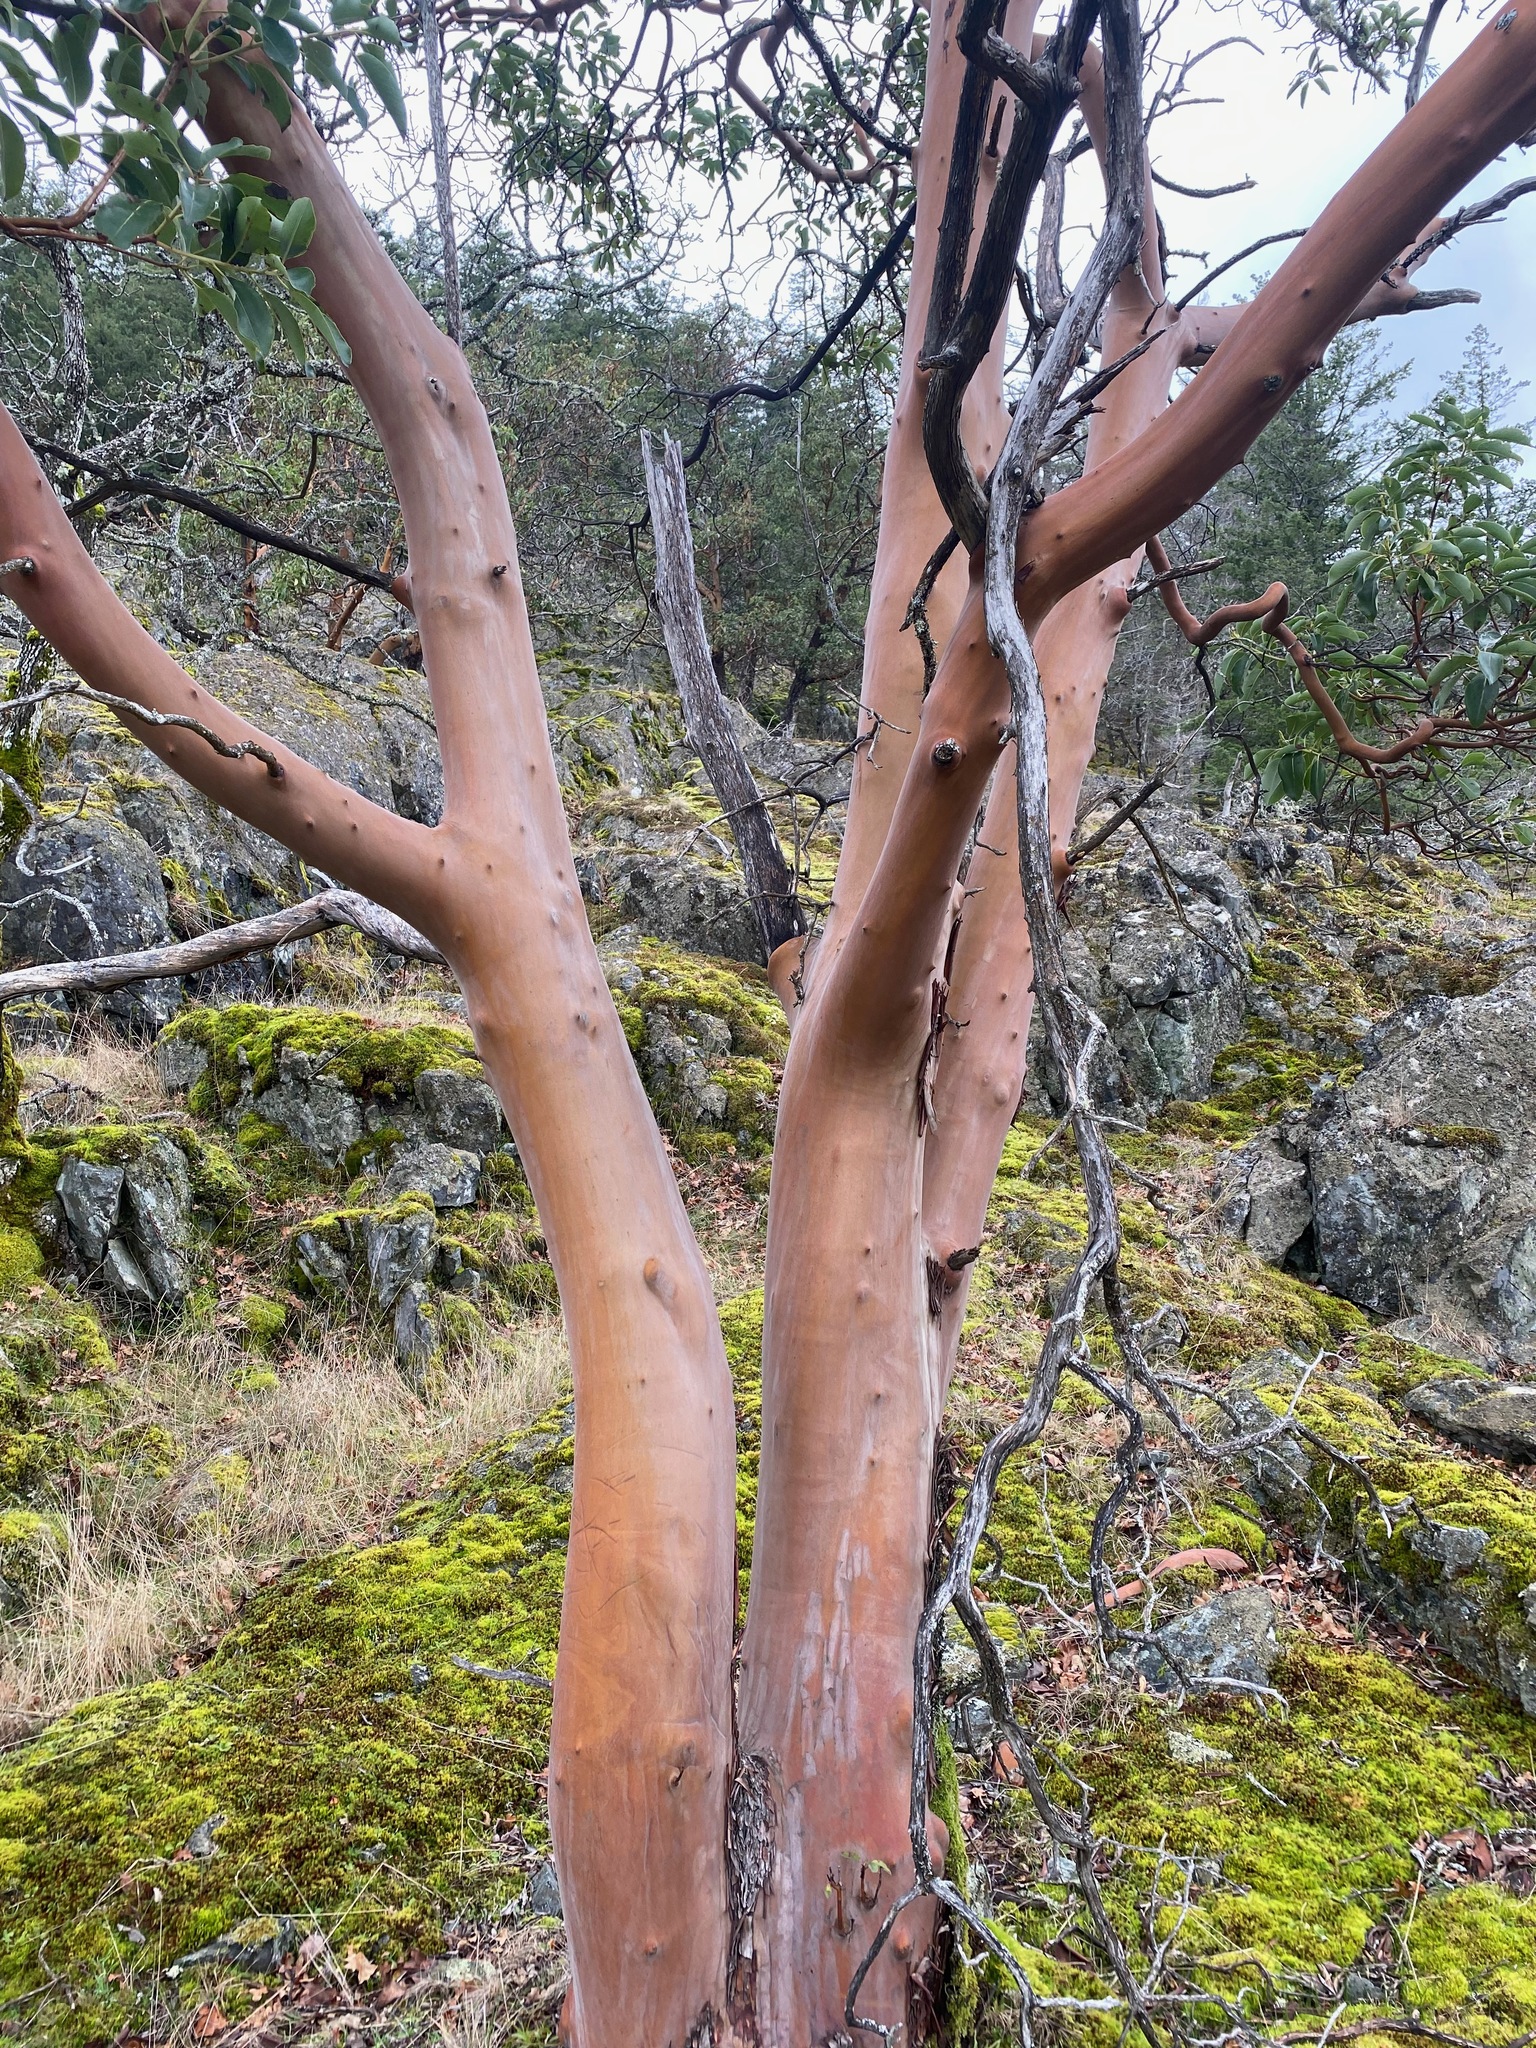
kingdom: Plantae
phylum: Tracheophyta
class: Magnoliopsida
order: Ericales
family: Ericaceae
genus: Arbutus
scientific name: Arbutus menziesii
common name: Pacific madrone
